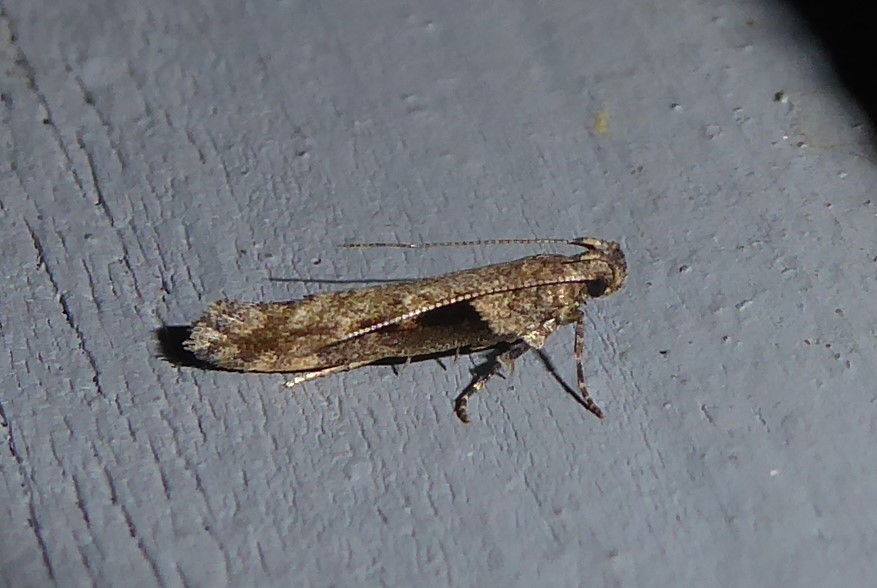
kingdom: Animalia
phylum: Arthropoda
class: Insecta
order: Lepidoptera
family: Gelechiidae
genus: Symmetrischema
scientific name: Symmetrischema tangolias
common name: Moth
